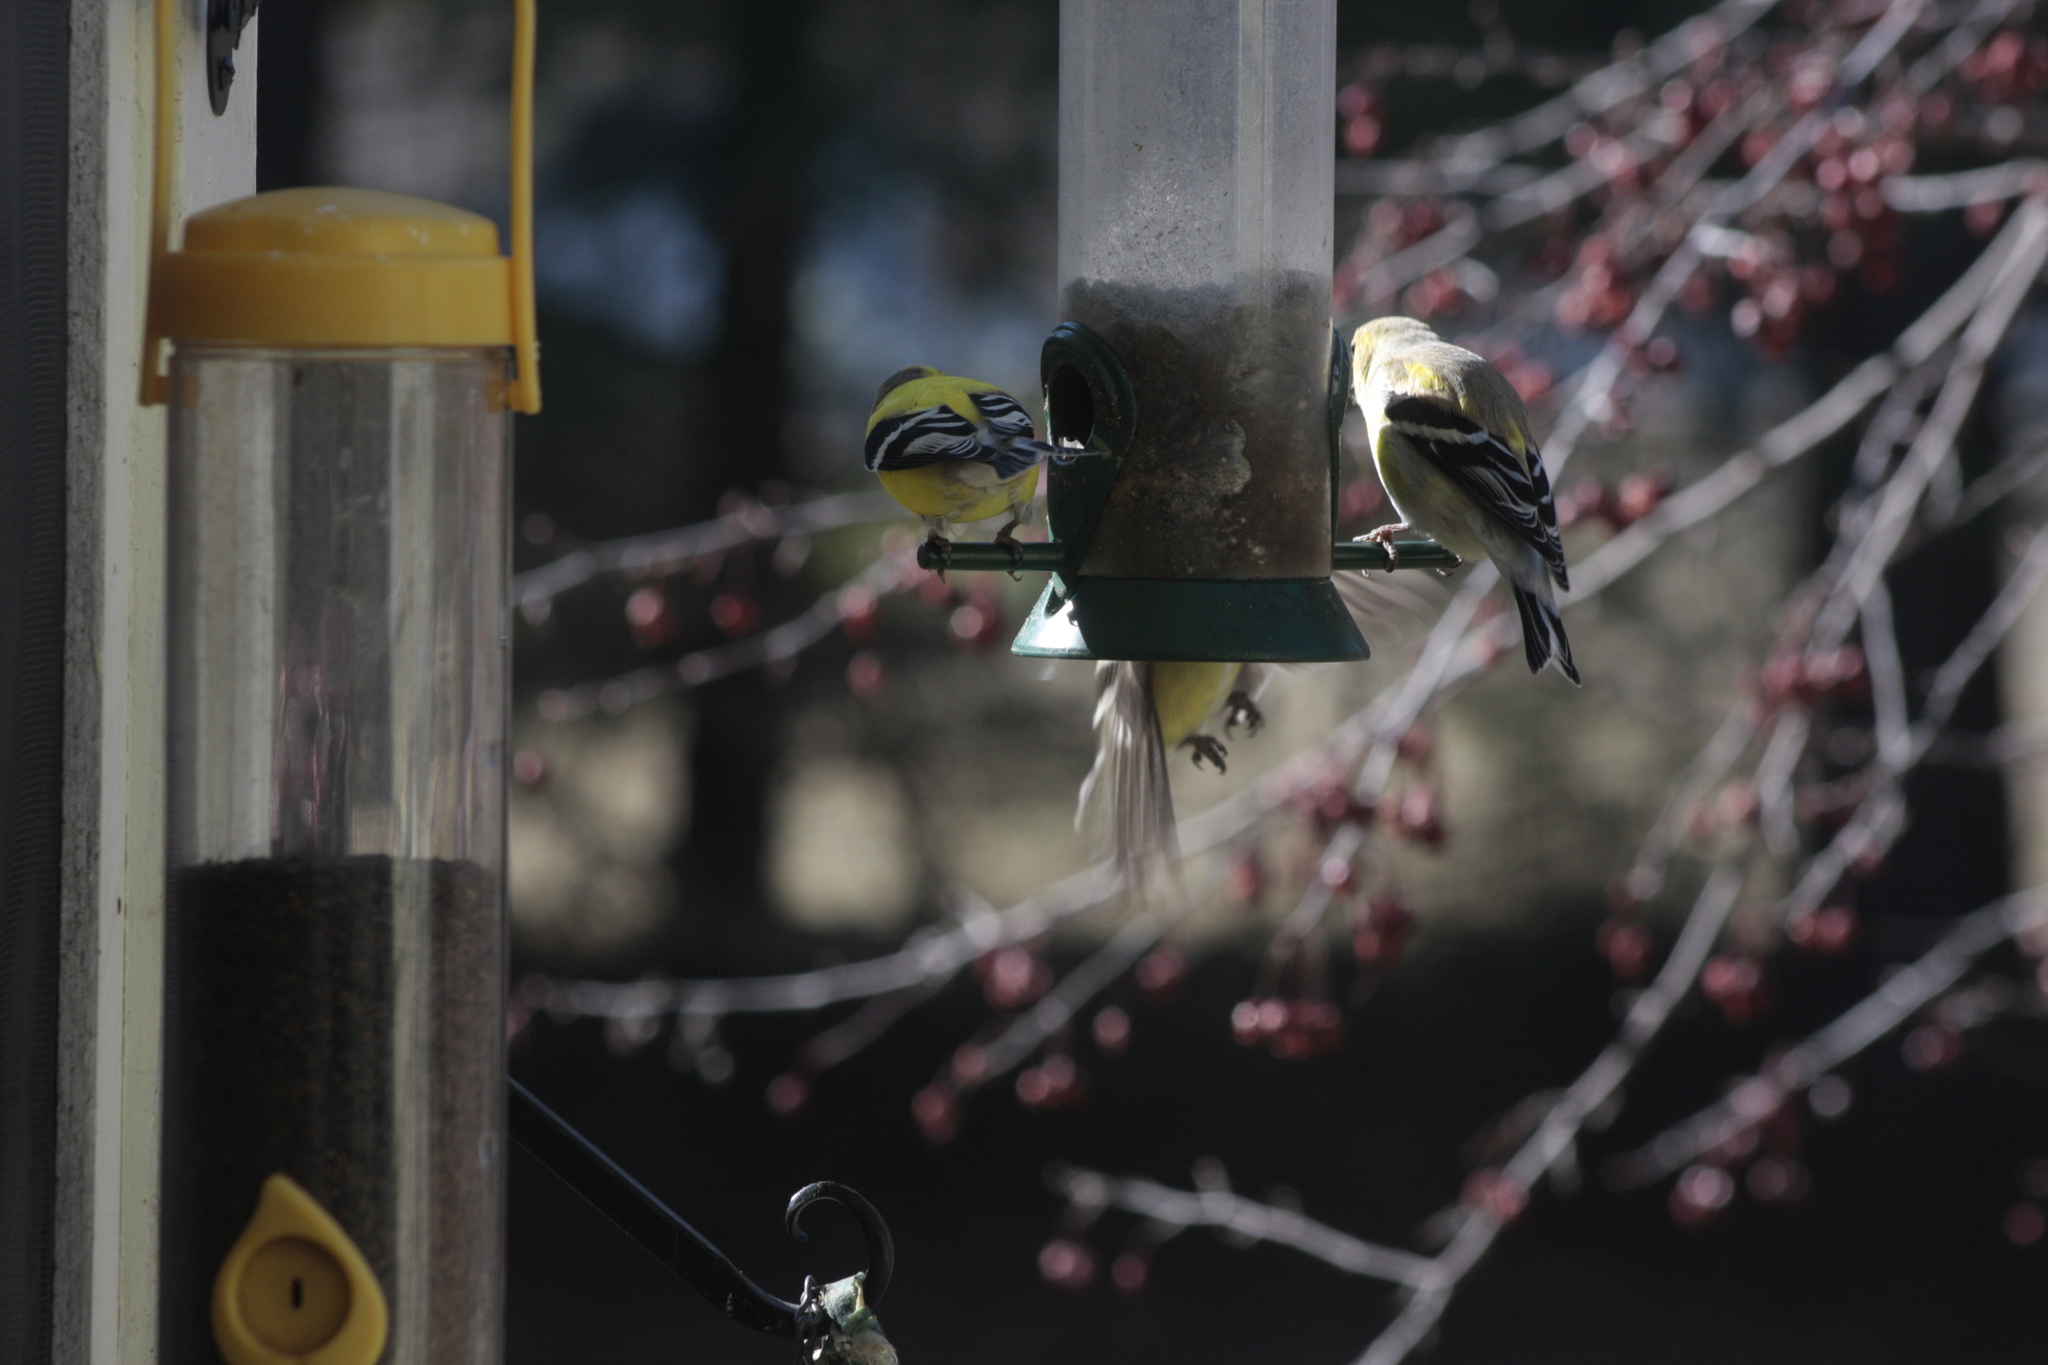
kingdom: Animalia
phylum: Chordata
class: Aves
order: Passeriformes
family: Fringillidae
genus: Spinus
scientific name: Spinus tristis
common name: American goldfinch
